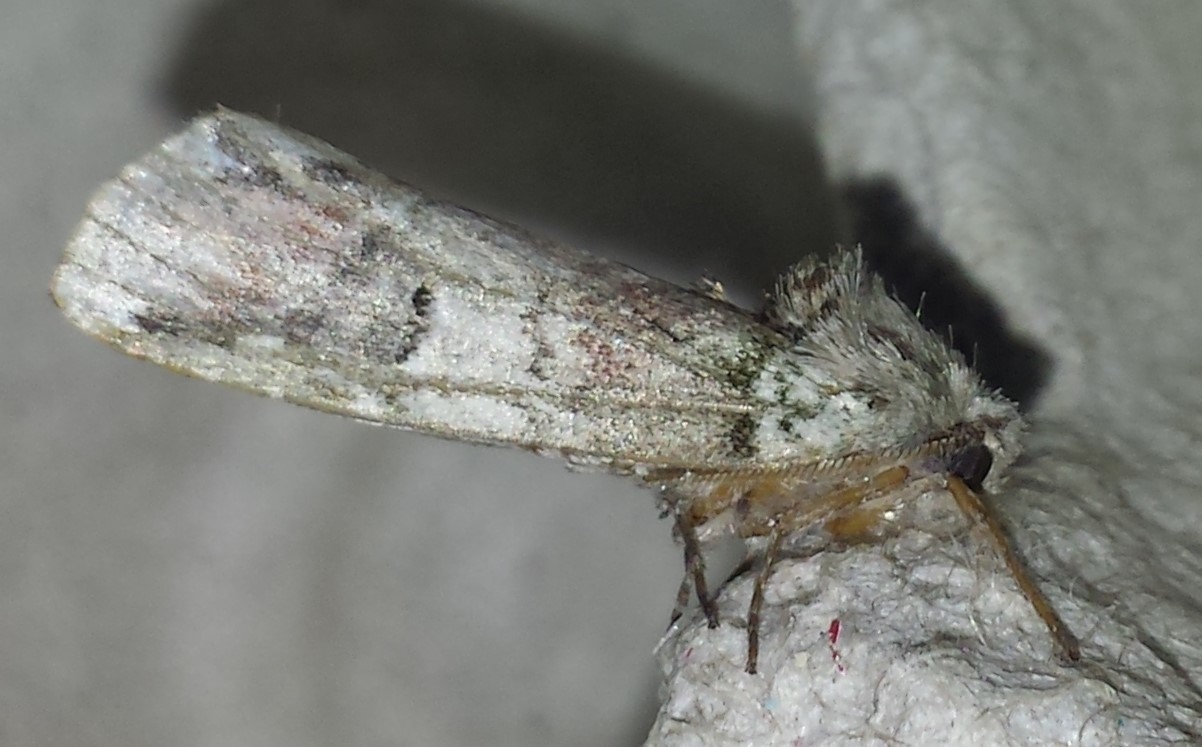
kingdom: Animalia
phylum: Arthropoda
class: Insecta
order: Lepidoptera
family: Notodontidae
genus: Schizura
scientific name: Schizura
